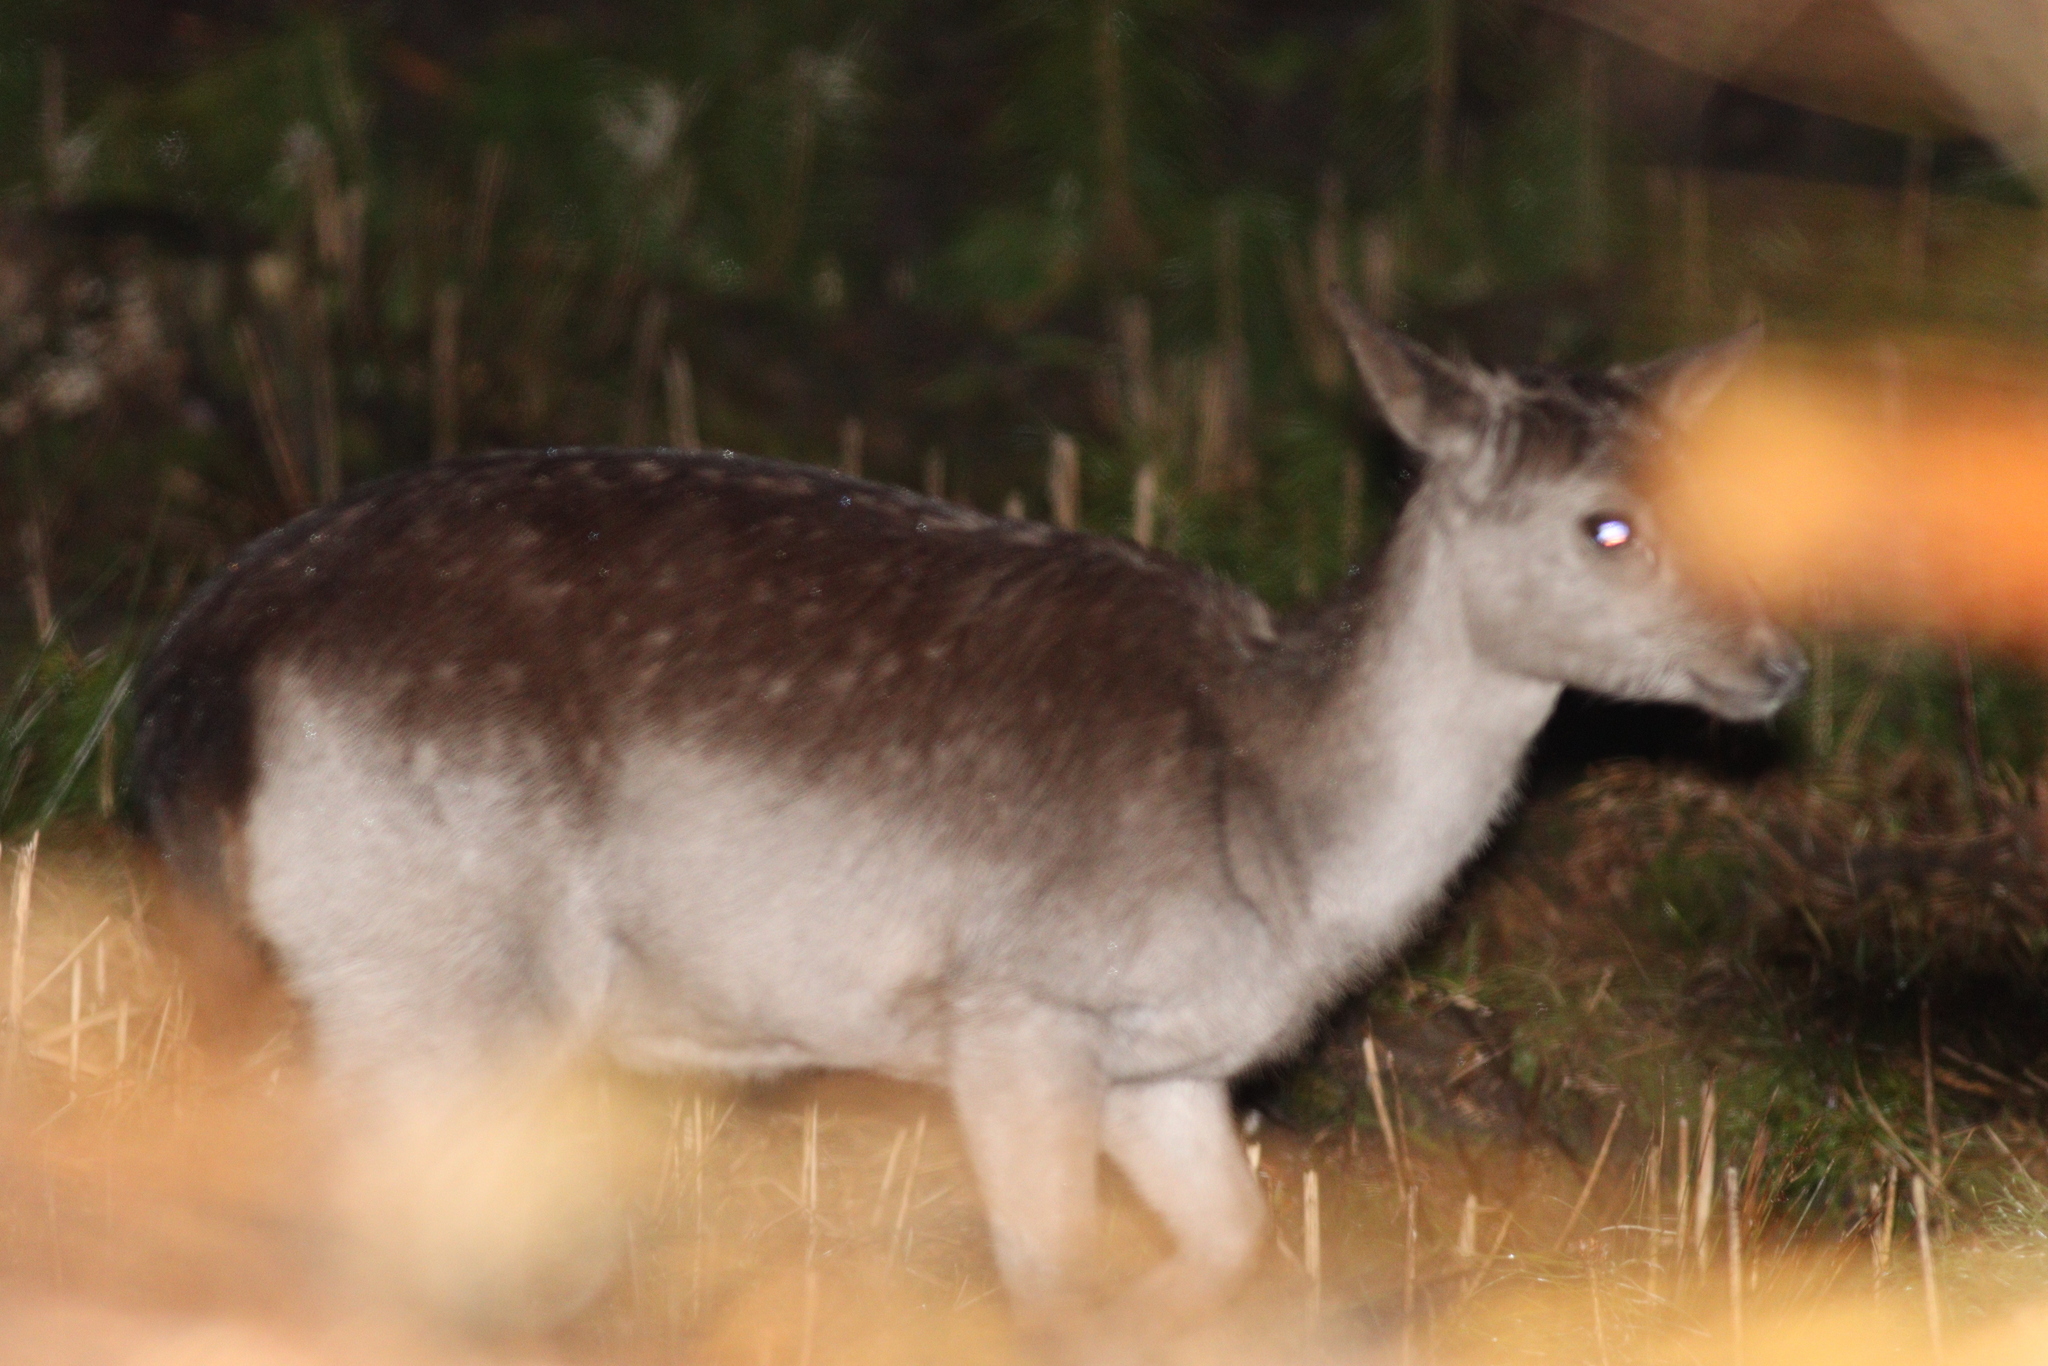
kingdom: Animalia
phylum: Chordata
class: Mammalia
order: Artiodactyla
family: Cervidae
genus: Dama
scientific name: Dama dama
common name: Fallow deer
